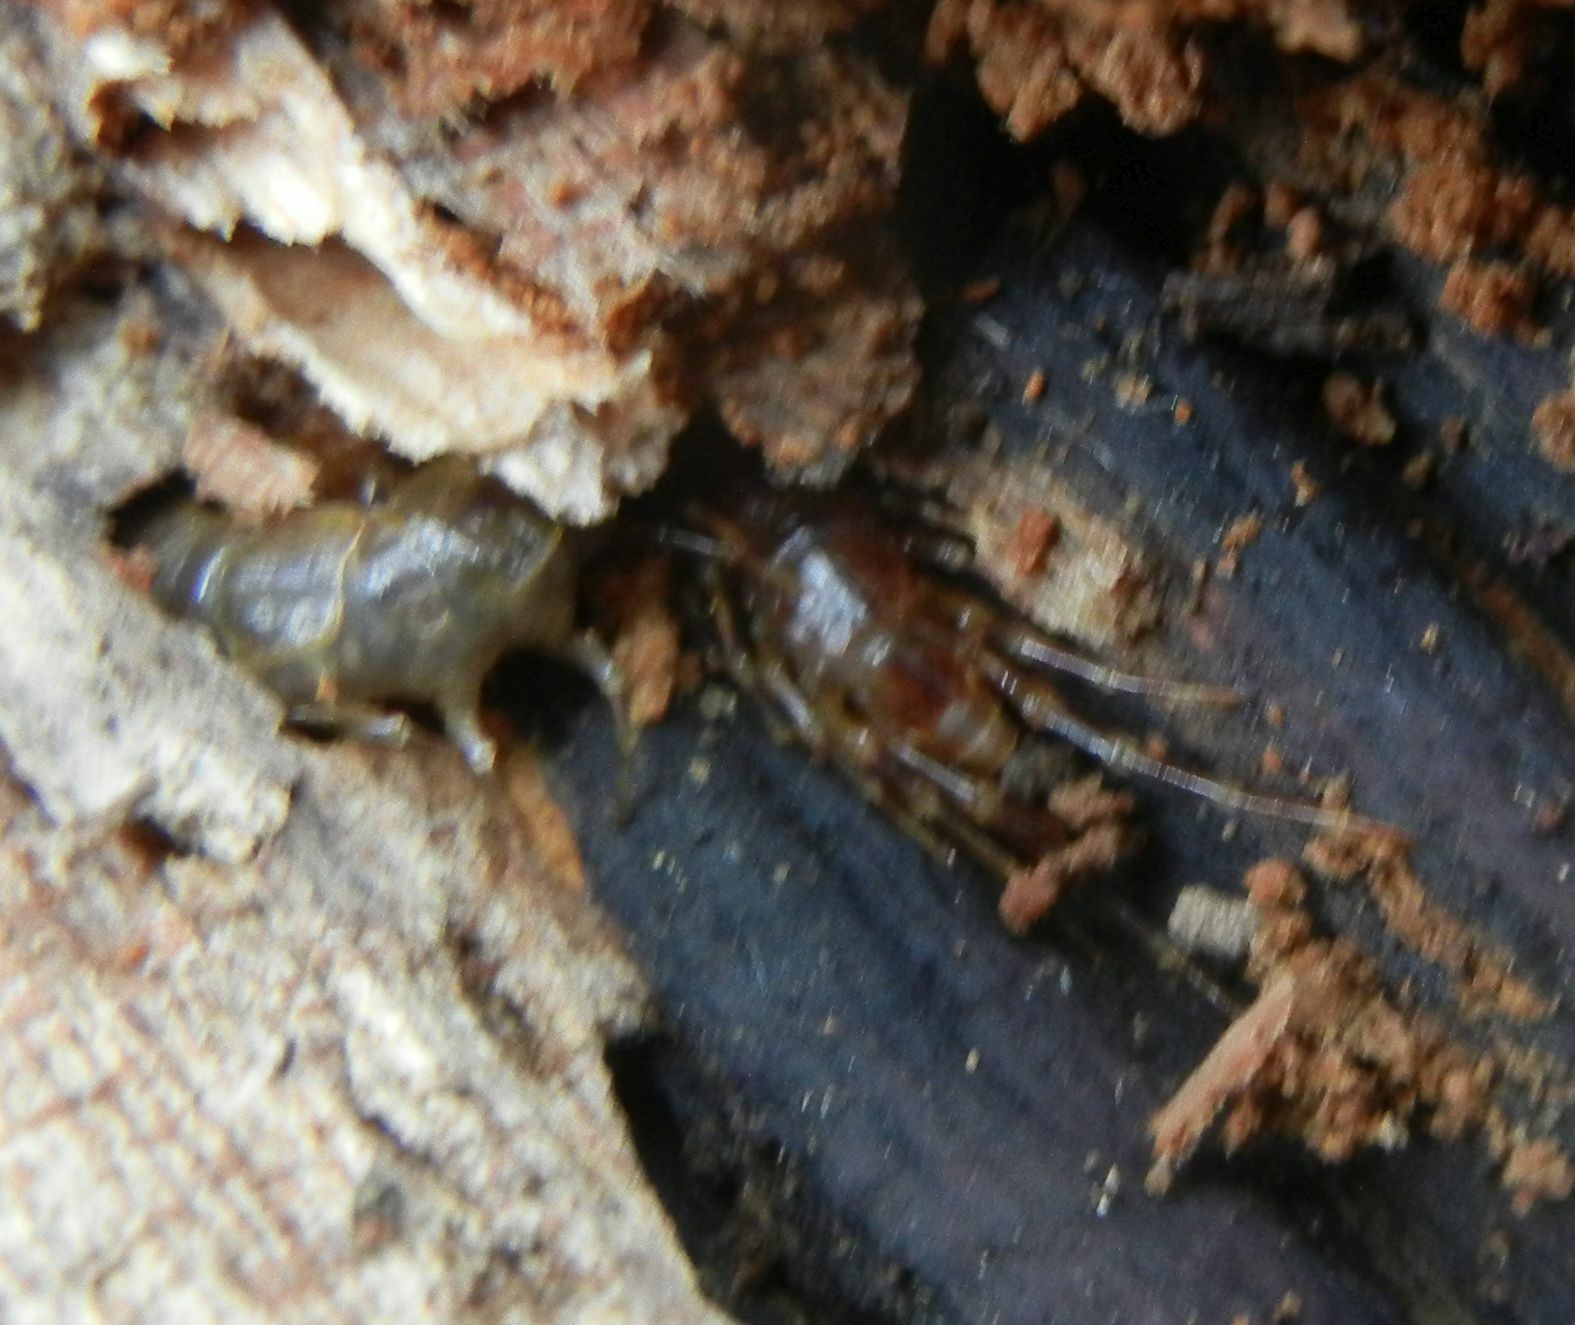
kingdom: Animalia
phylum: Arthropoda
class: Chilopoda
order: Lithobiomorpha
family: Lithobiidae
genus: Lithobius
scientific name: Lithobius variegatus
